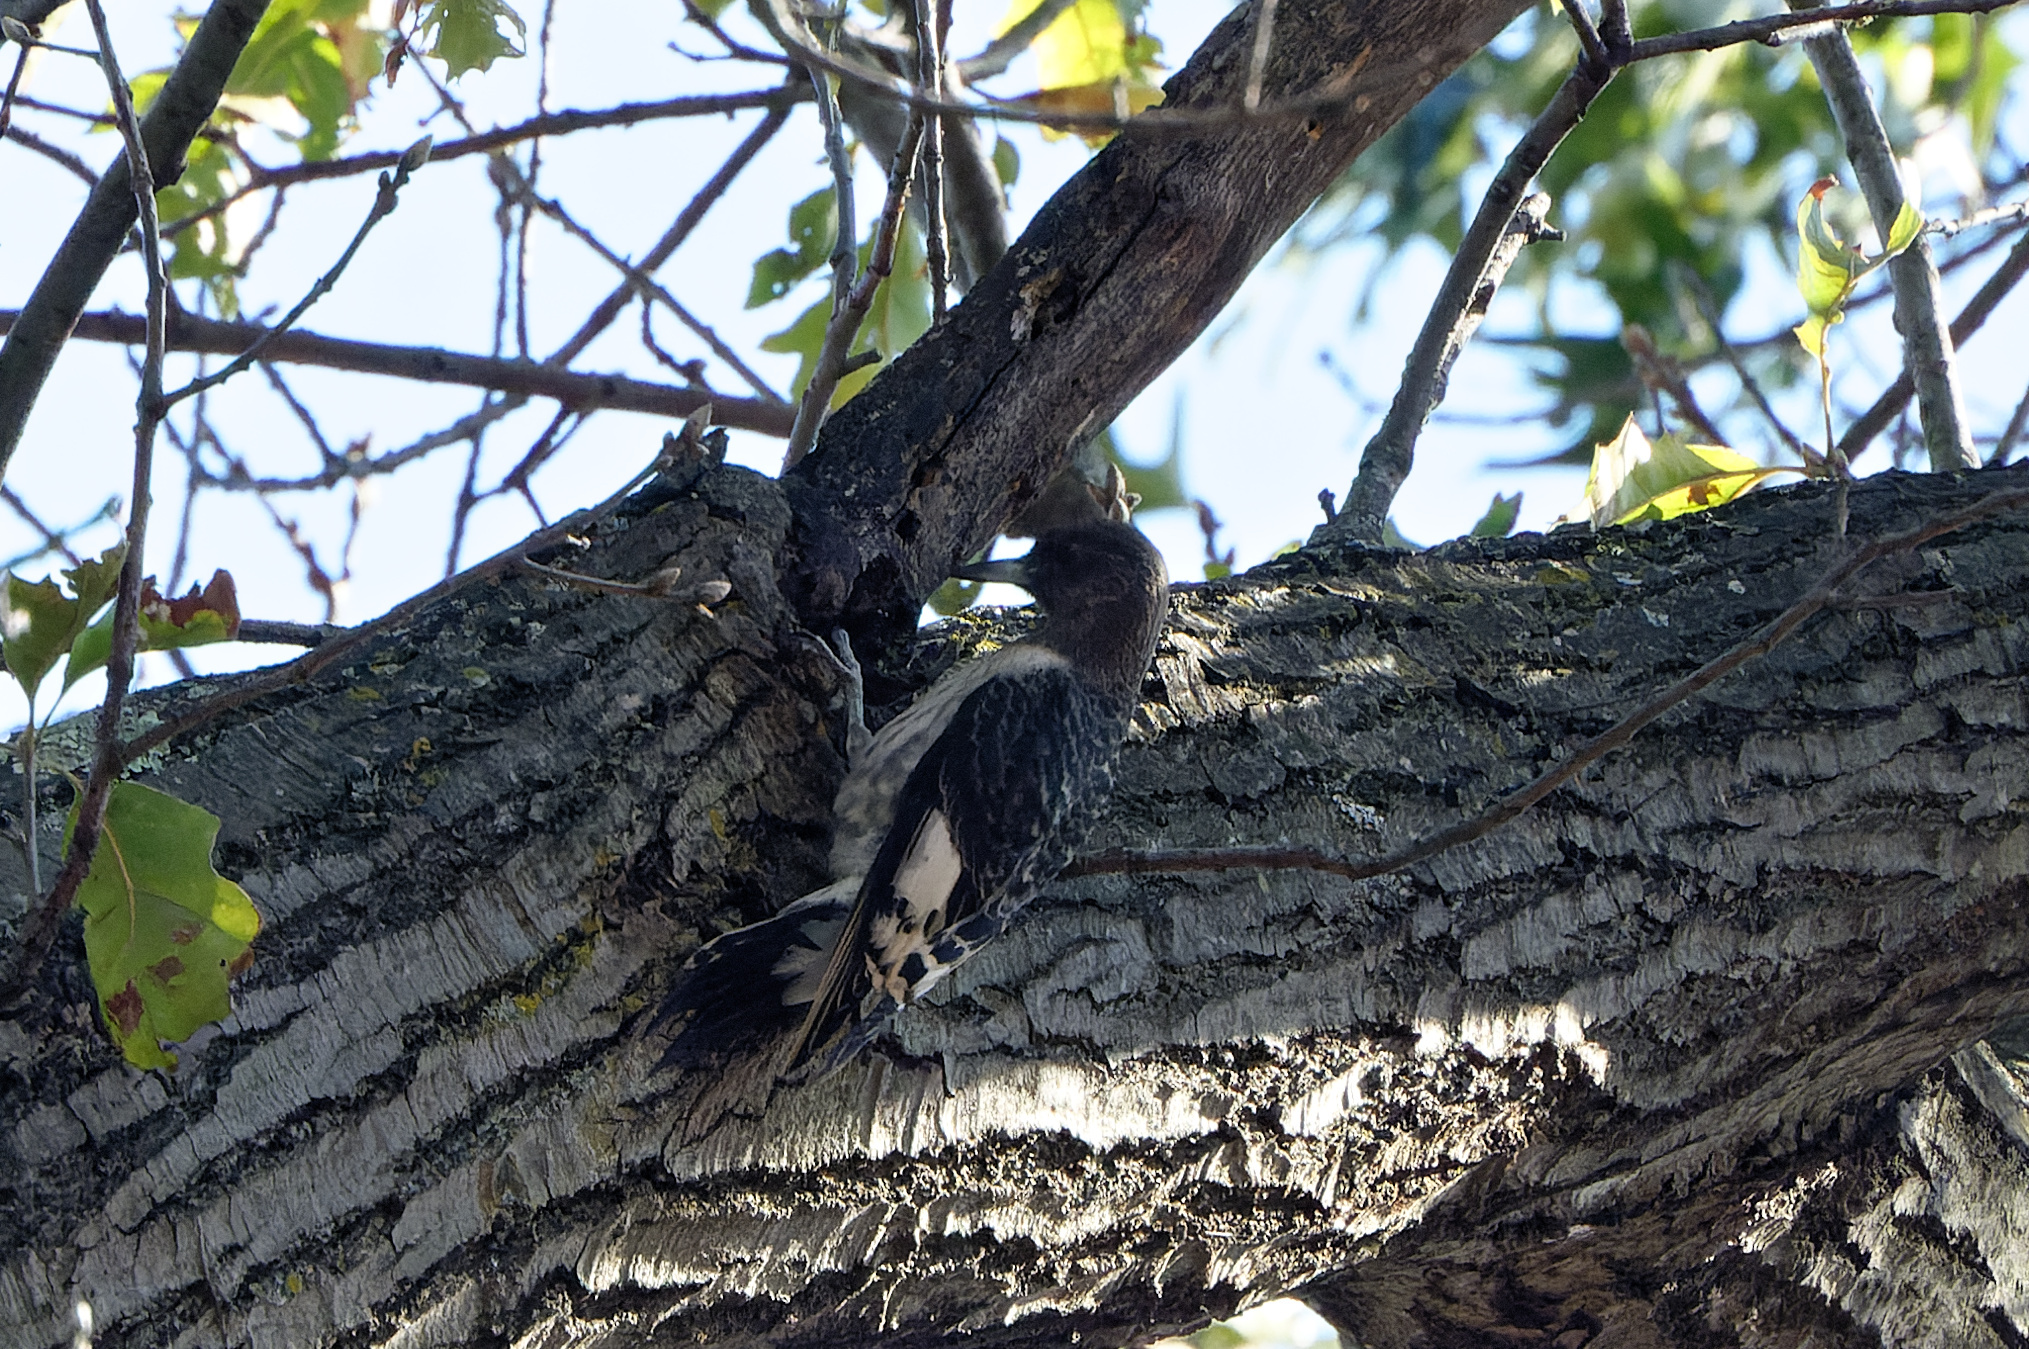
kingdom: Animalia
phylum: Chordata
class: Aves
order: Piciformes
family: Picidae
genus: Melanerpes
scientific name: Melanerpes erythrocephalus
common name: Red-headed woodpecker
